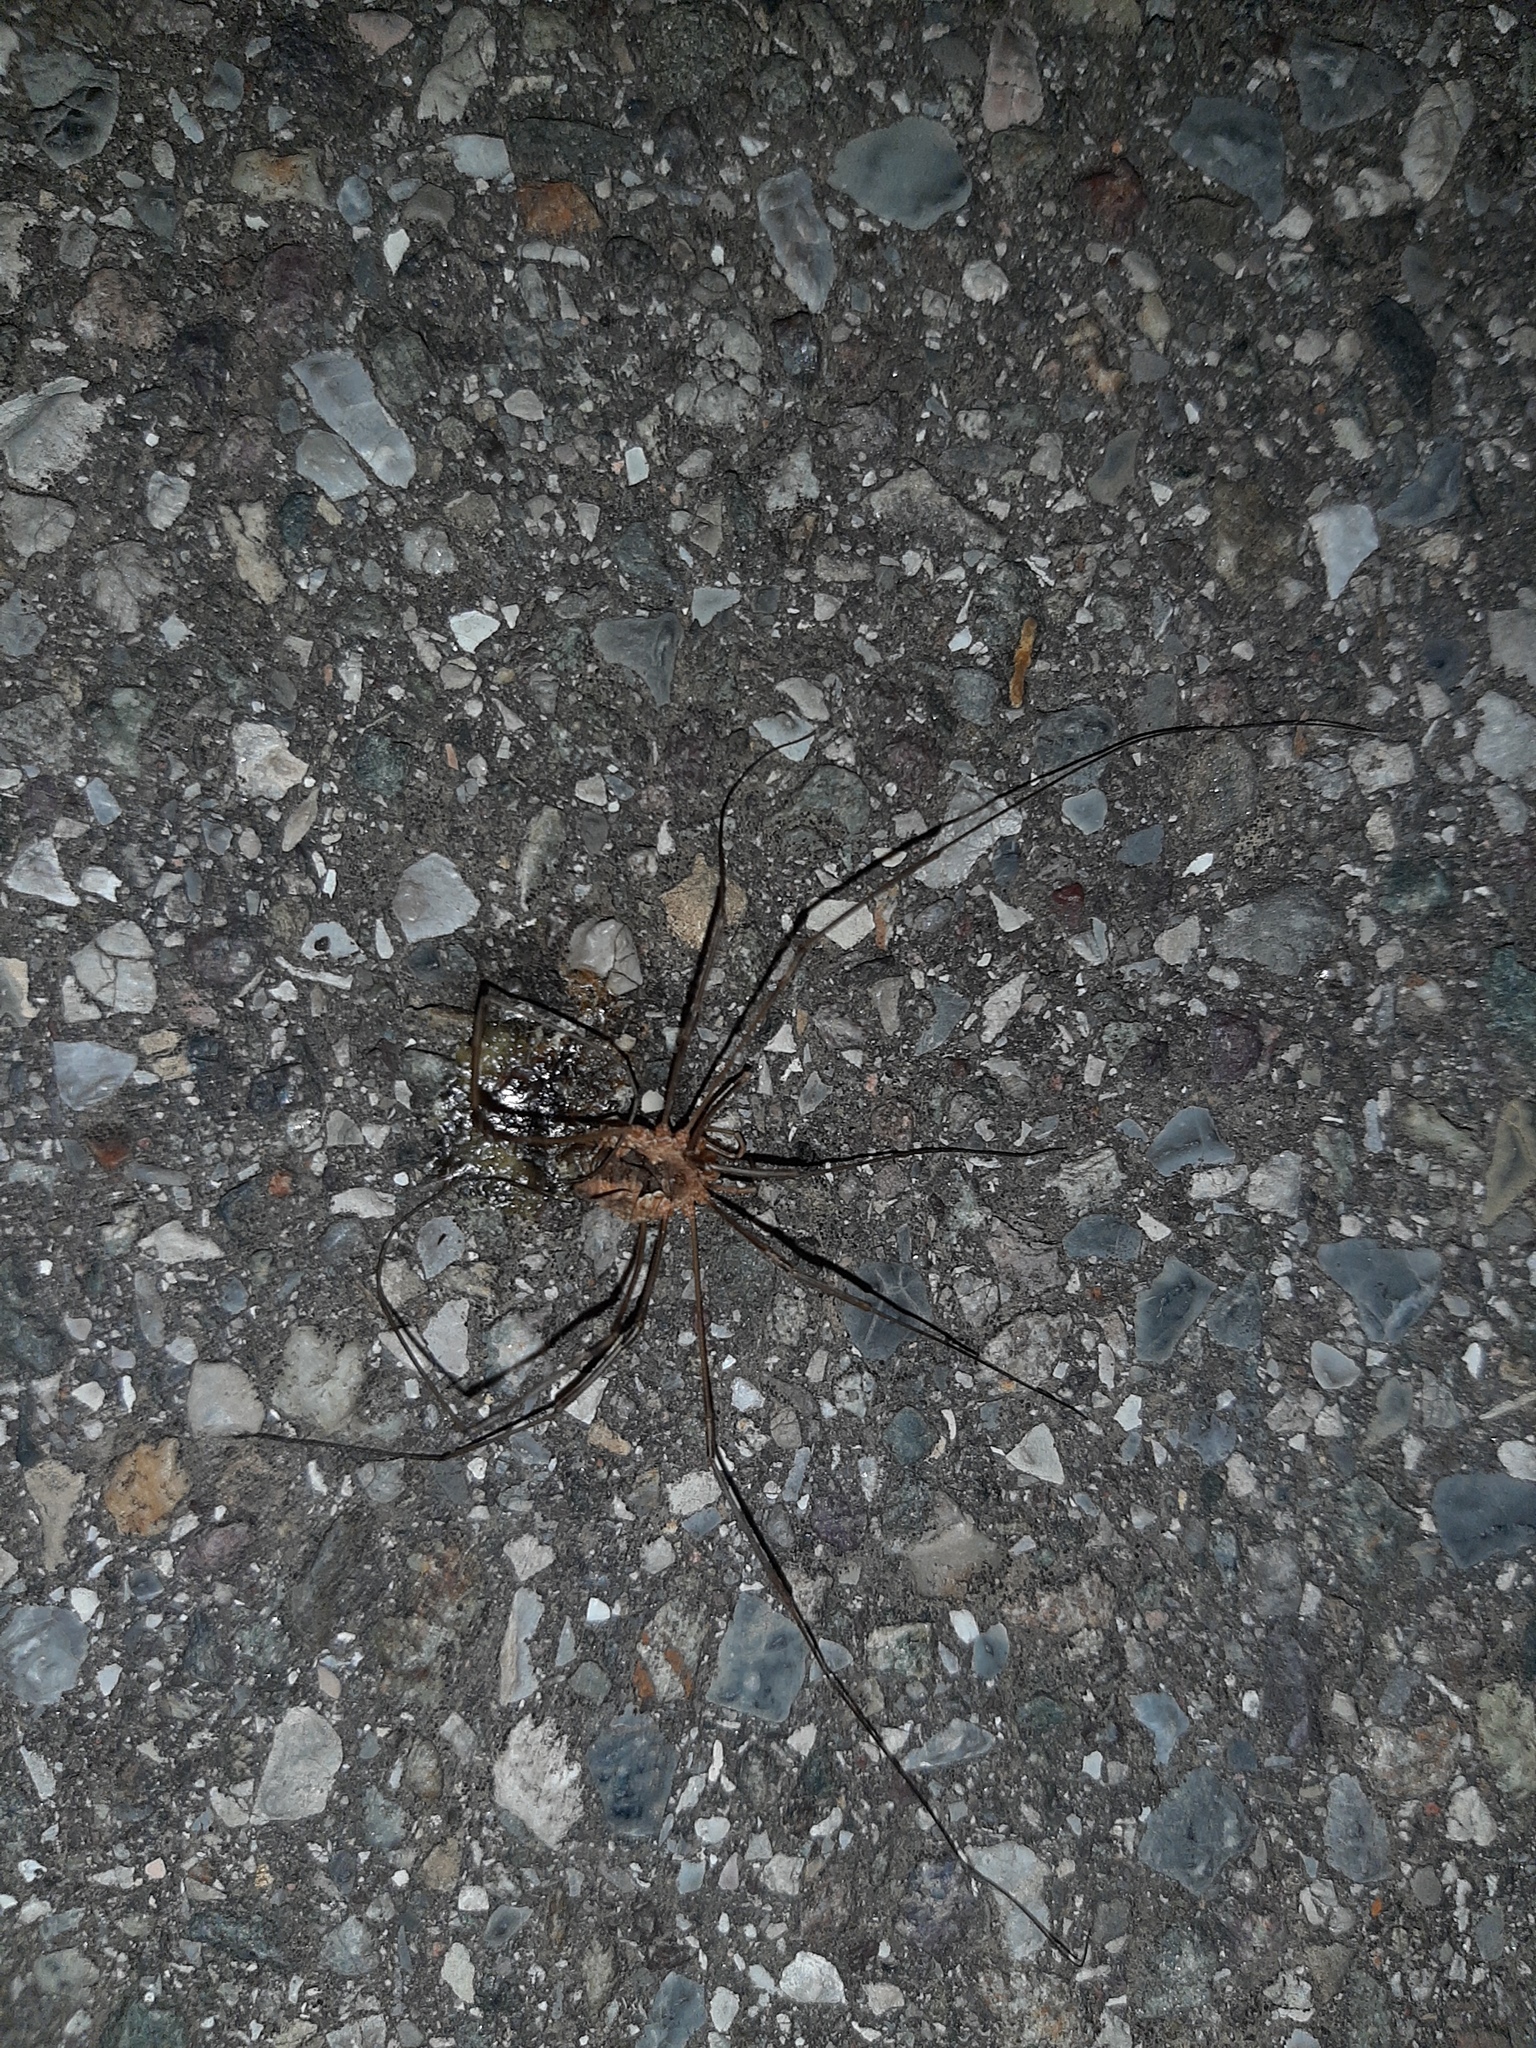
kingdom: Animalia
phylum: Arthropoda
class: Arachnida
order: Opiliones
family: Phalangiidae
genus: Phalangium
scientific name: Phalangium opilio
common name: Daddy longleg
